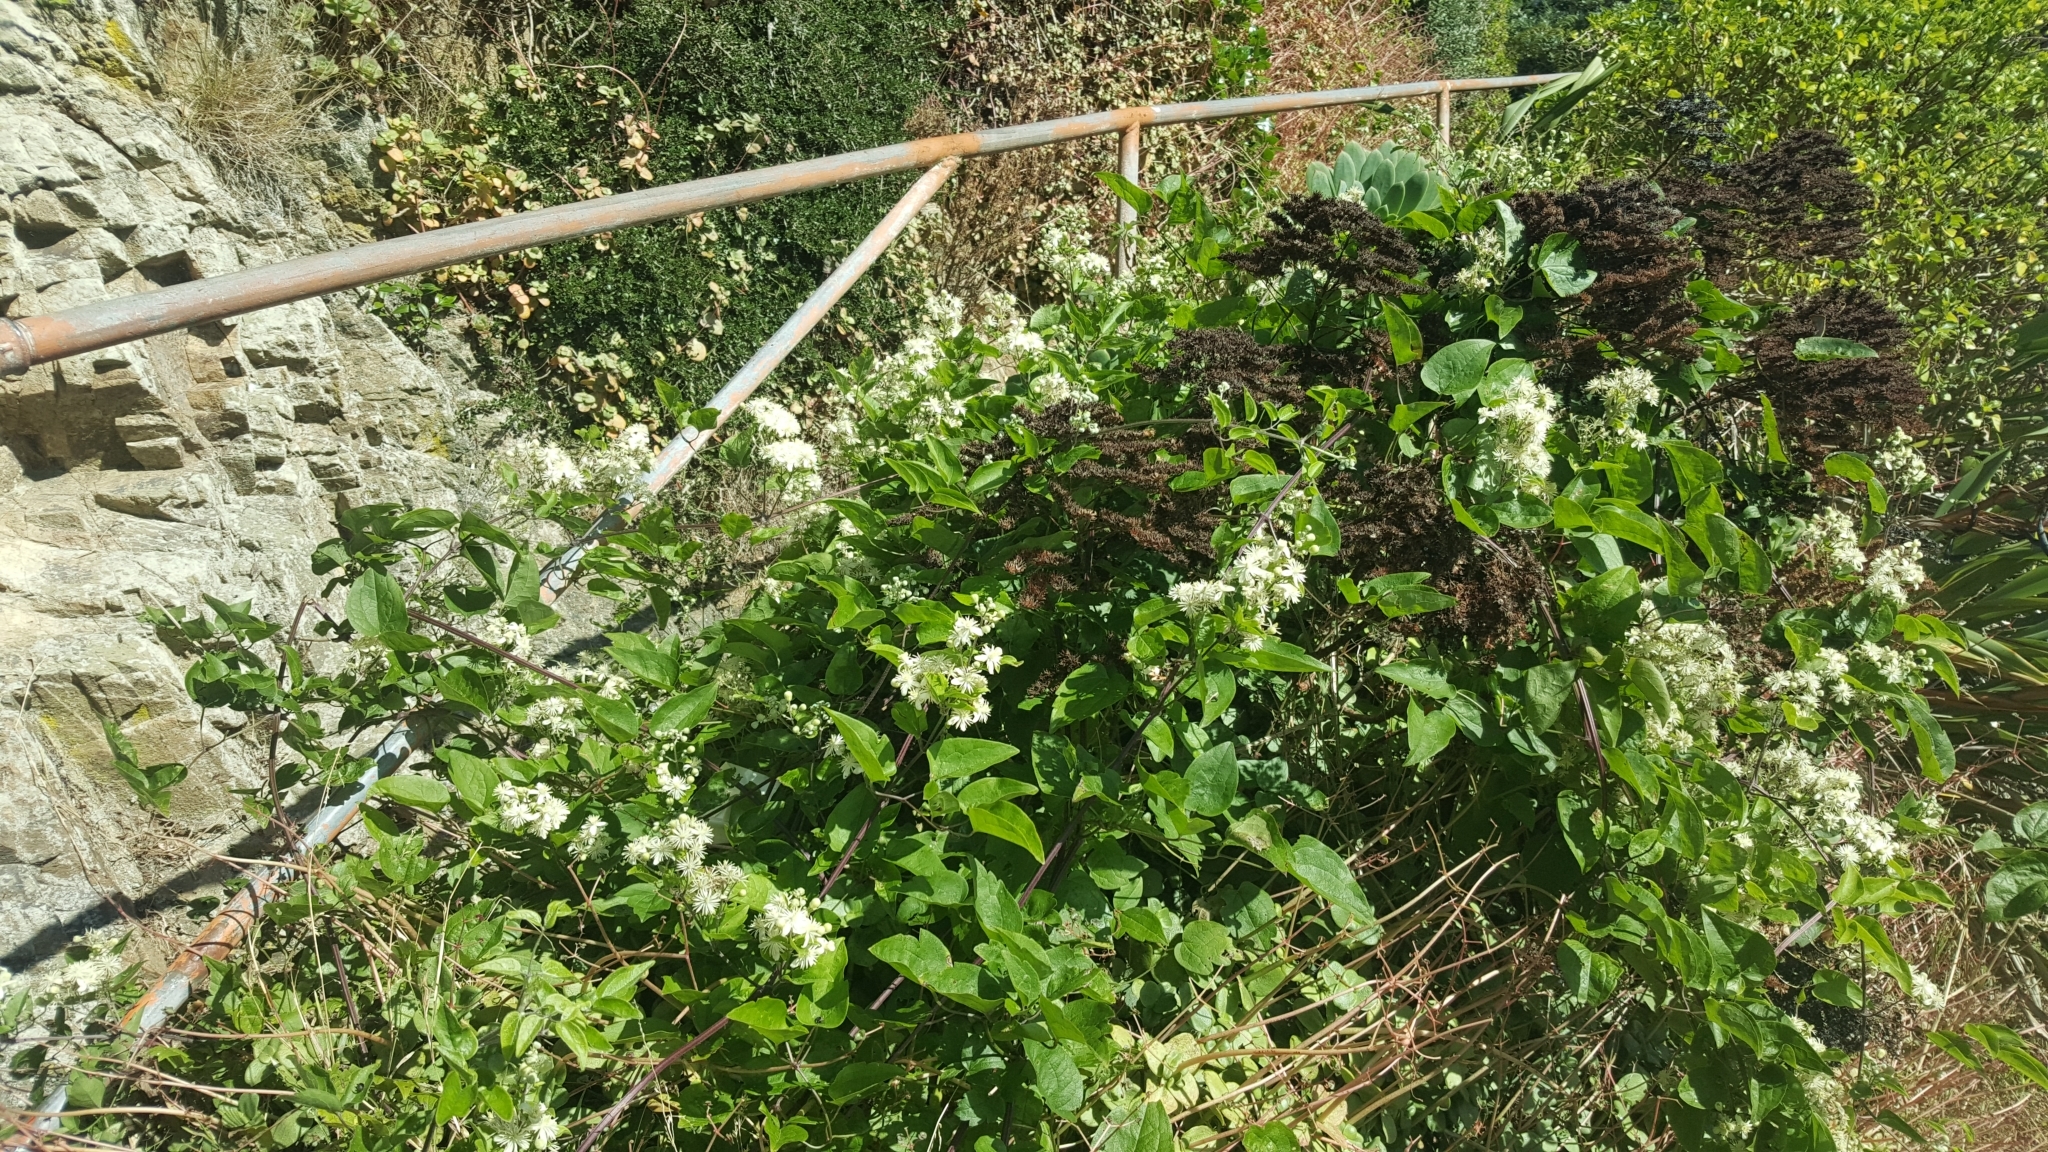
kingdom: Plantae
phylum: Tracheophyta
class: Magnoliopsida
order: Ranunculales
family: Ranunculaceae
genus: Clematis
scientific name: Clematis vitalba
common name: Evergreen clematis
